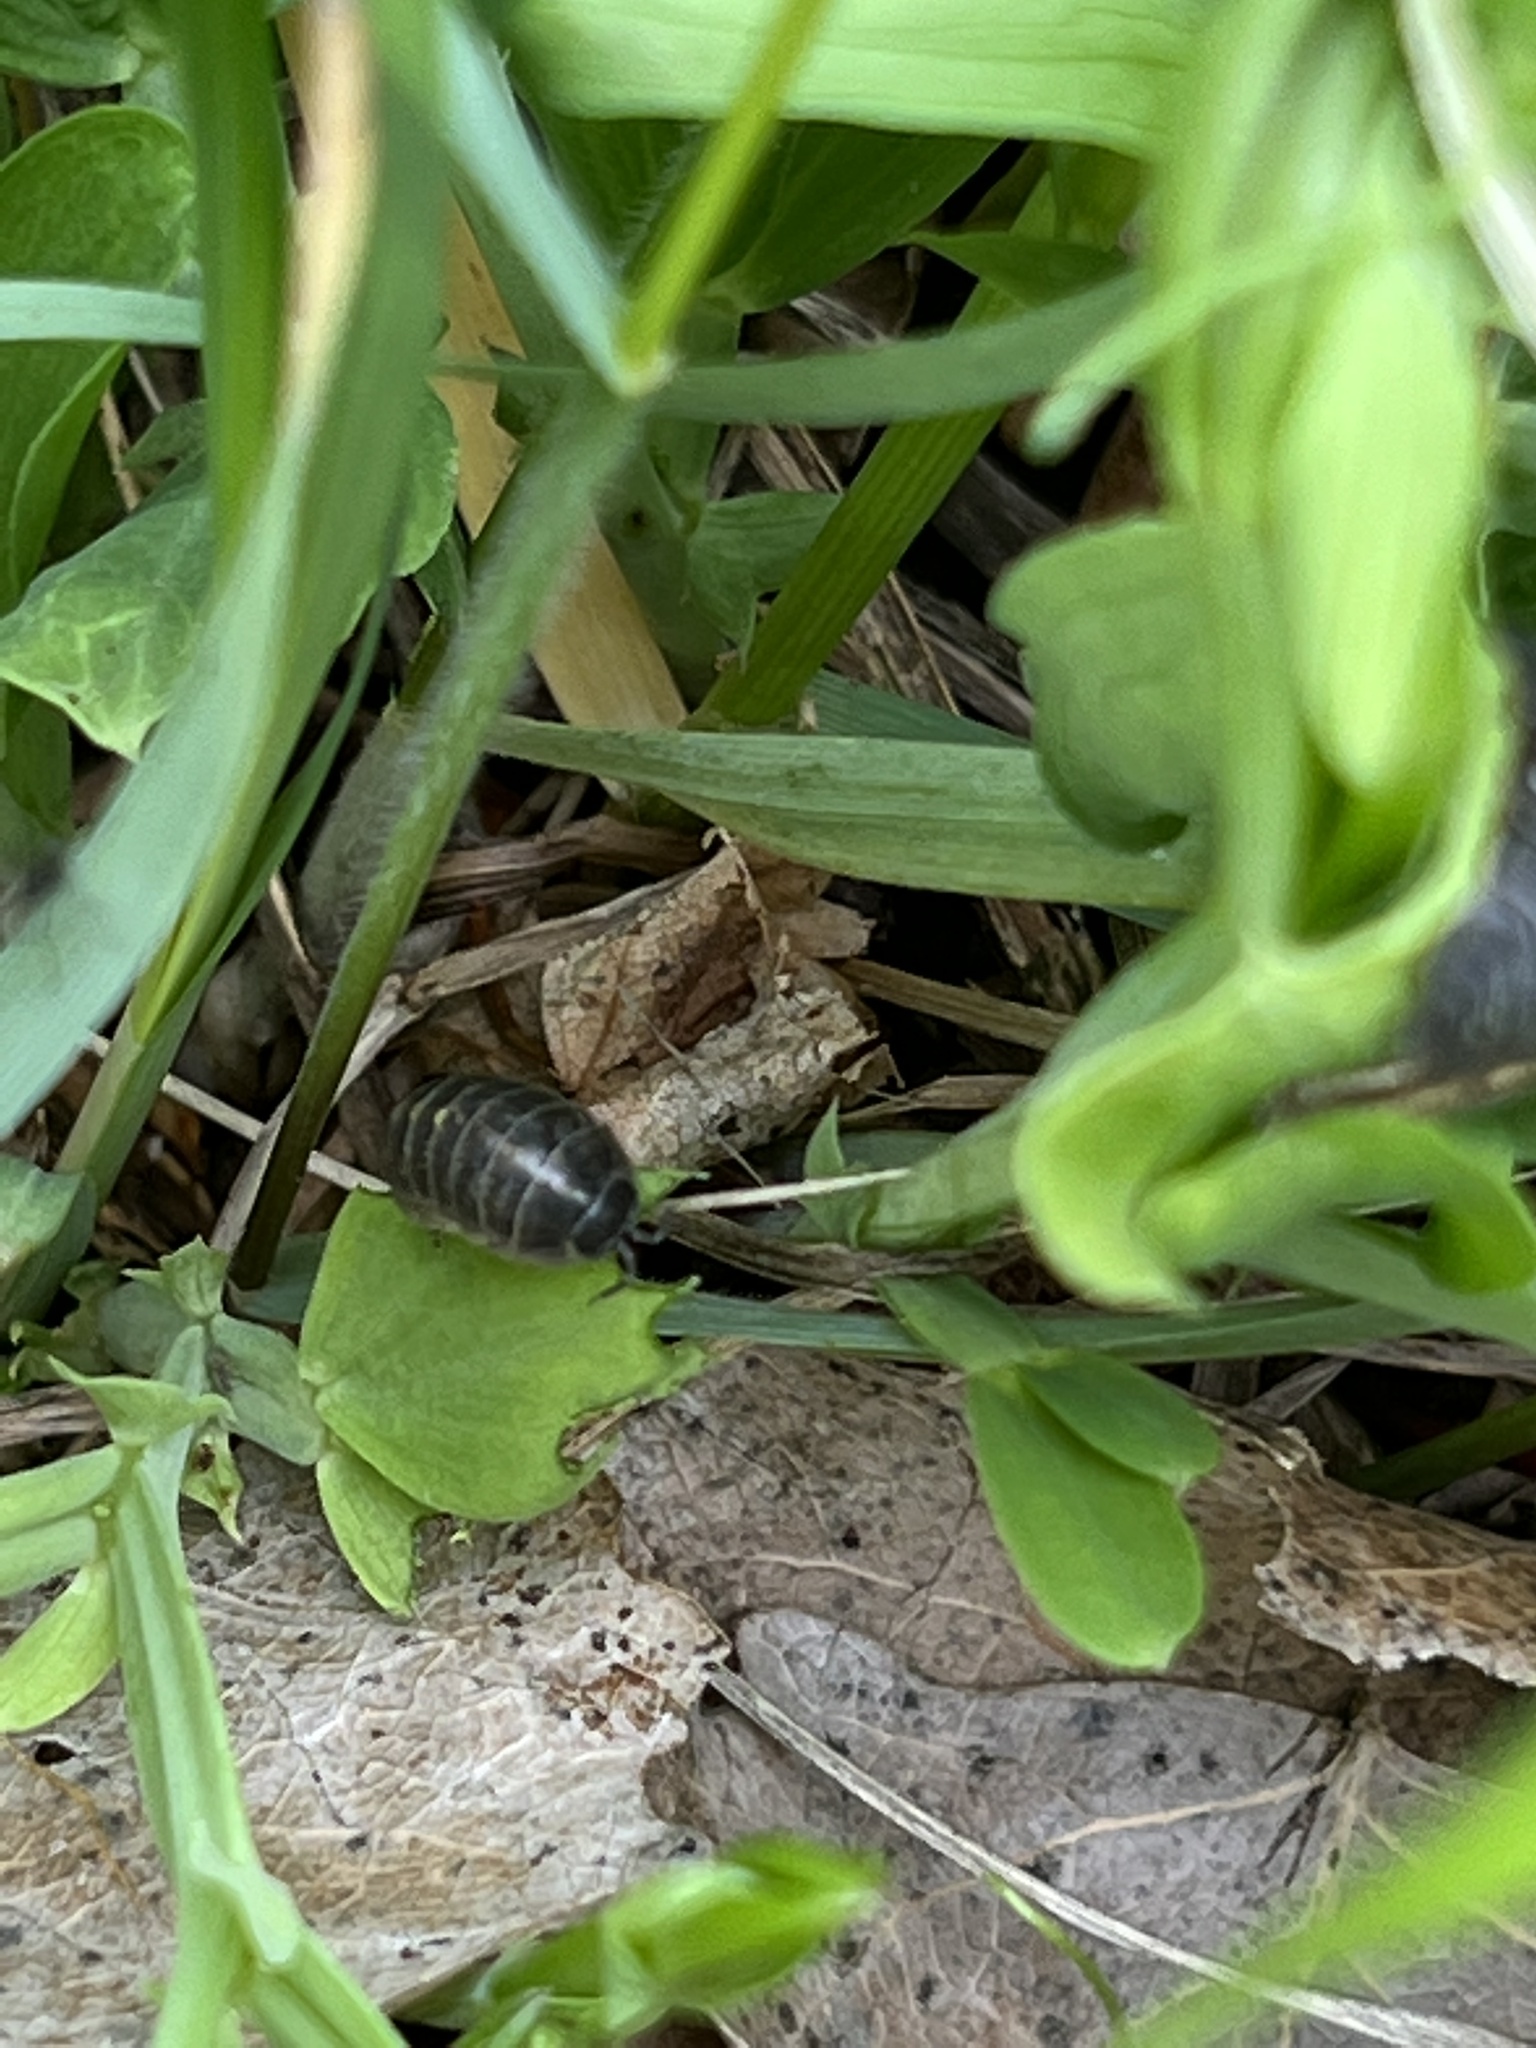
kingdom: Animalia
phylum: Arthropoda
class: Malacostraca
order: Isopoda
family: Armadillidiidae
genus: Armadillidium
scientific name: Armadillidium vulgare
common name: Common pill woodlouse
